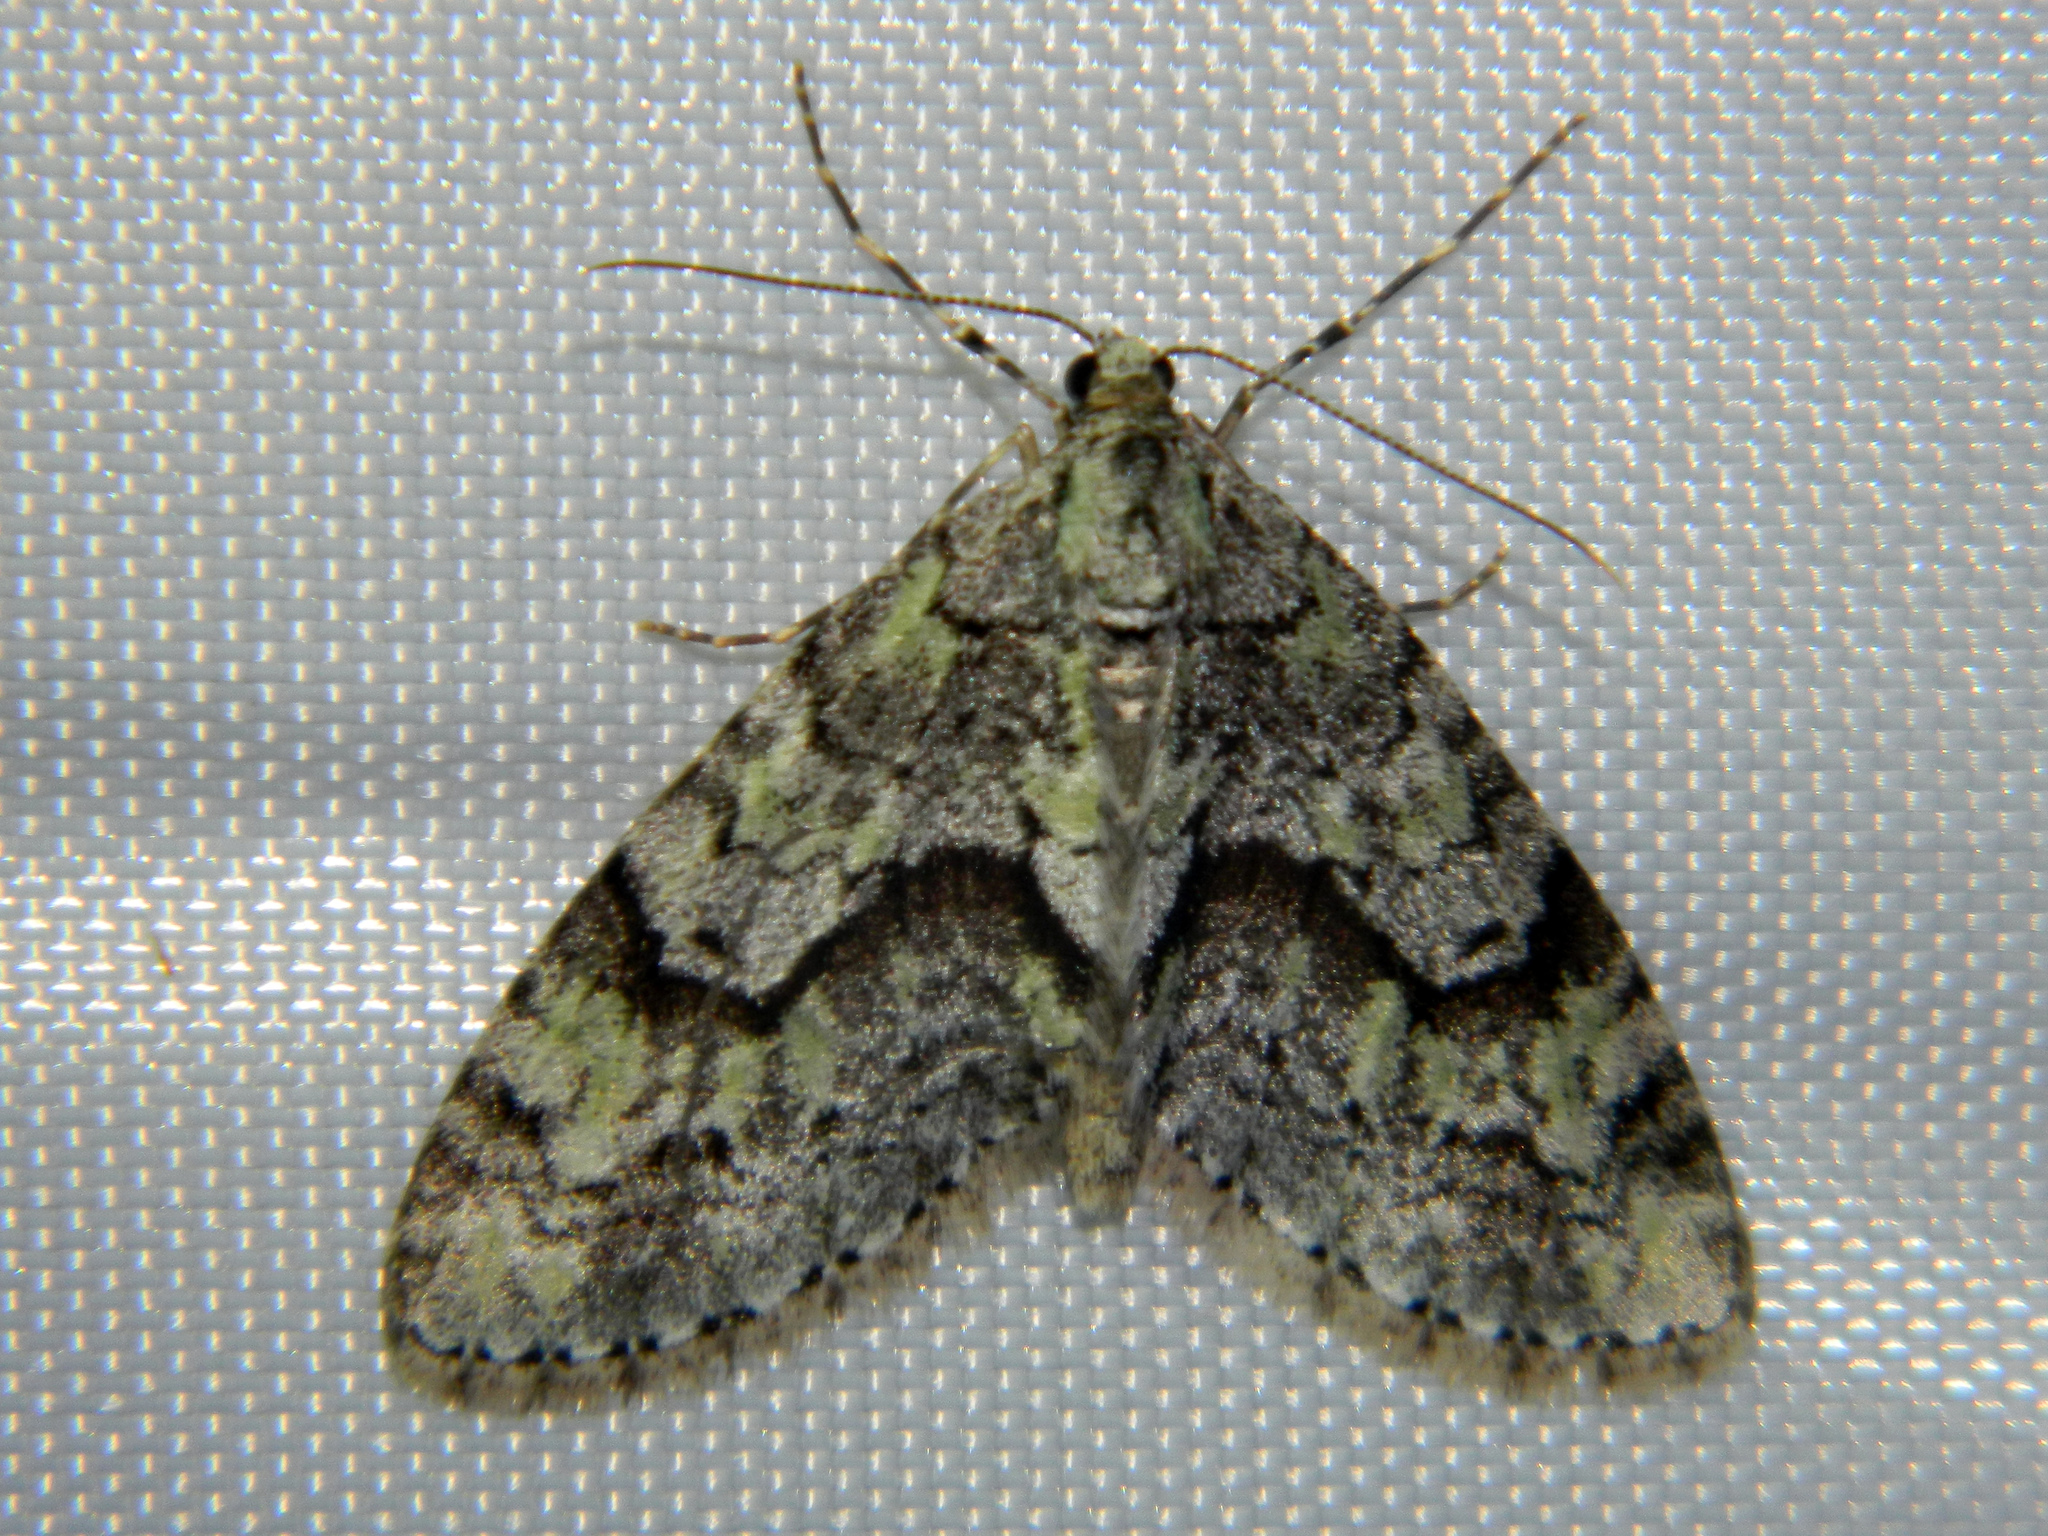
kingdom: Animalia
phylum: Arthropoda
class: Insecta
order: Lepidoptera
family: Geometridae
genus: Cladara
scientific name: Cladara limitaria
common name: Mottled gray carpet
